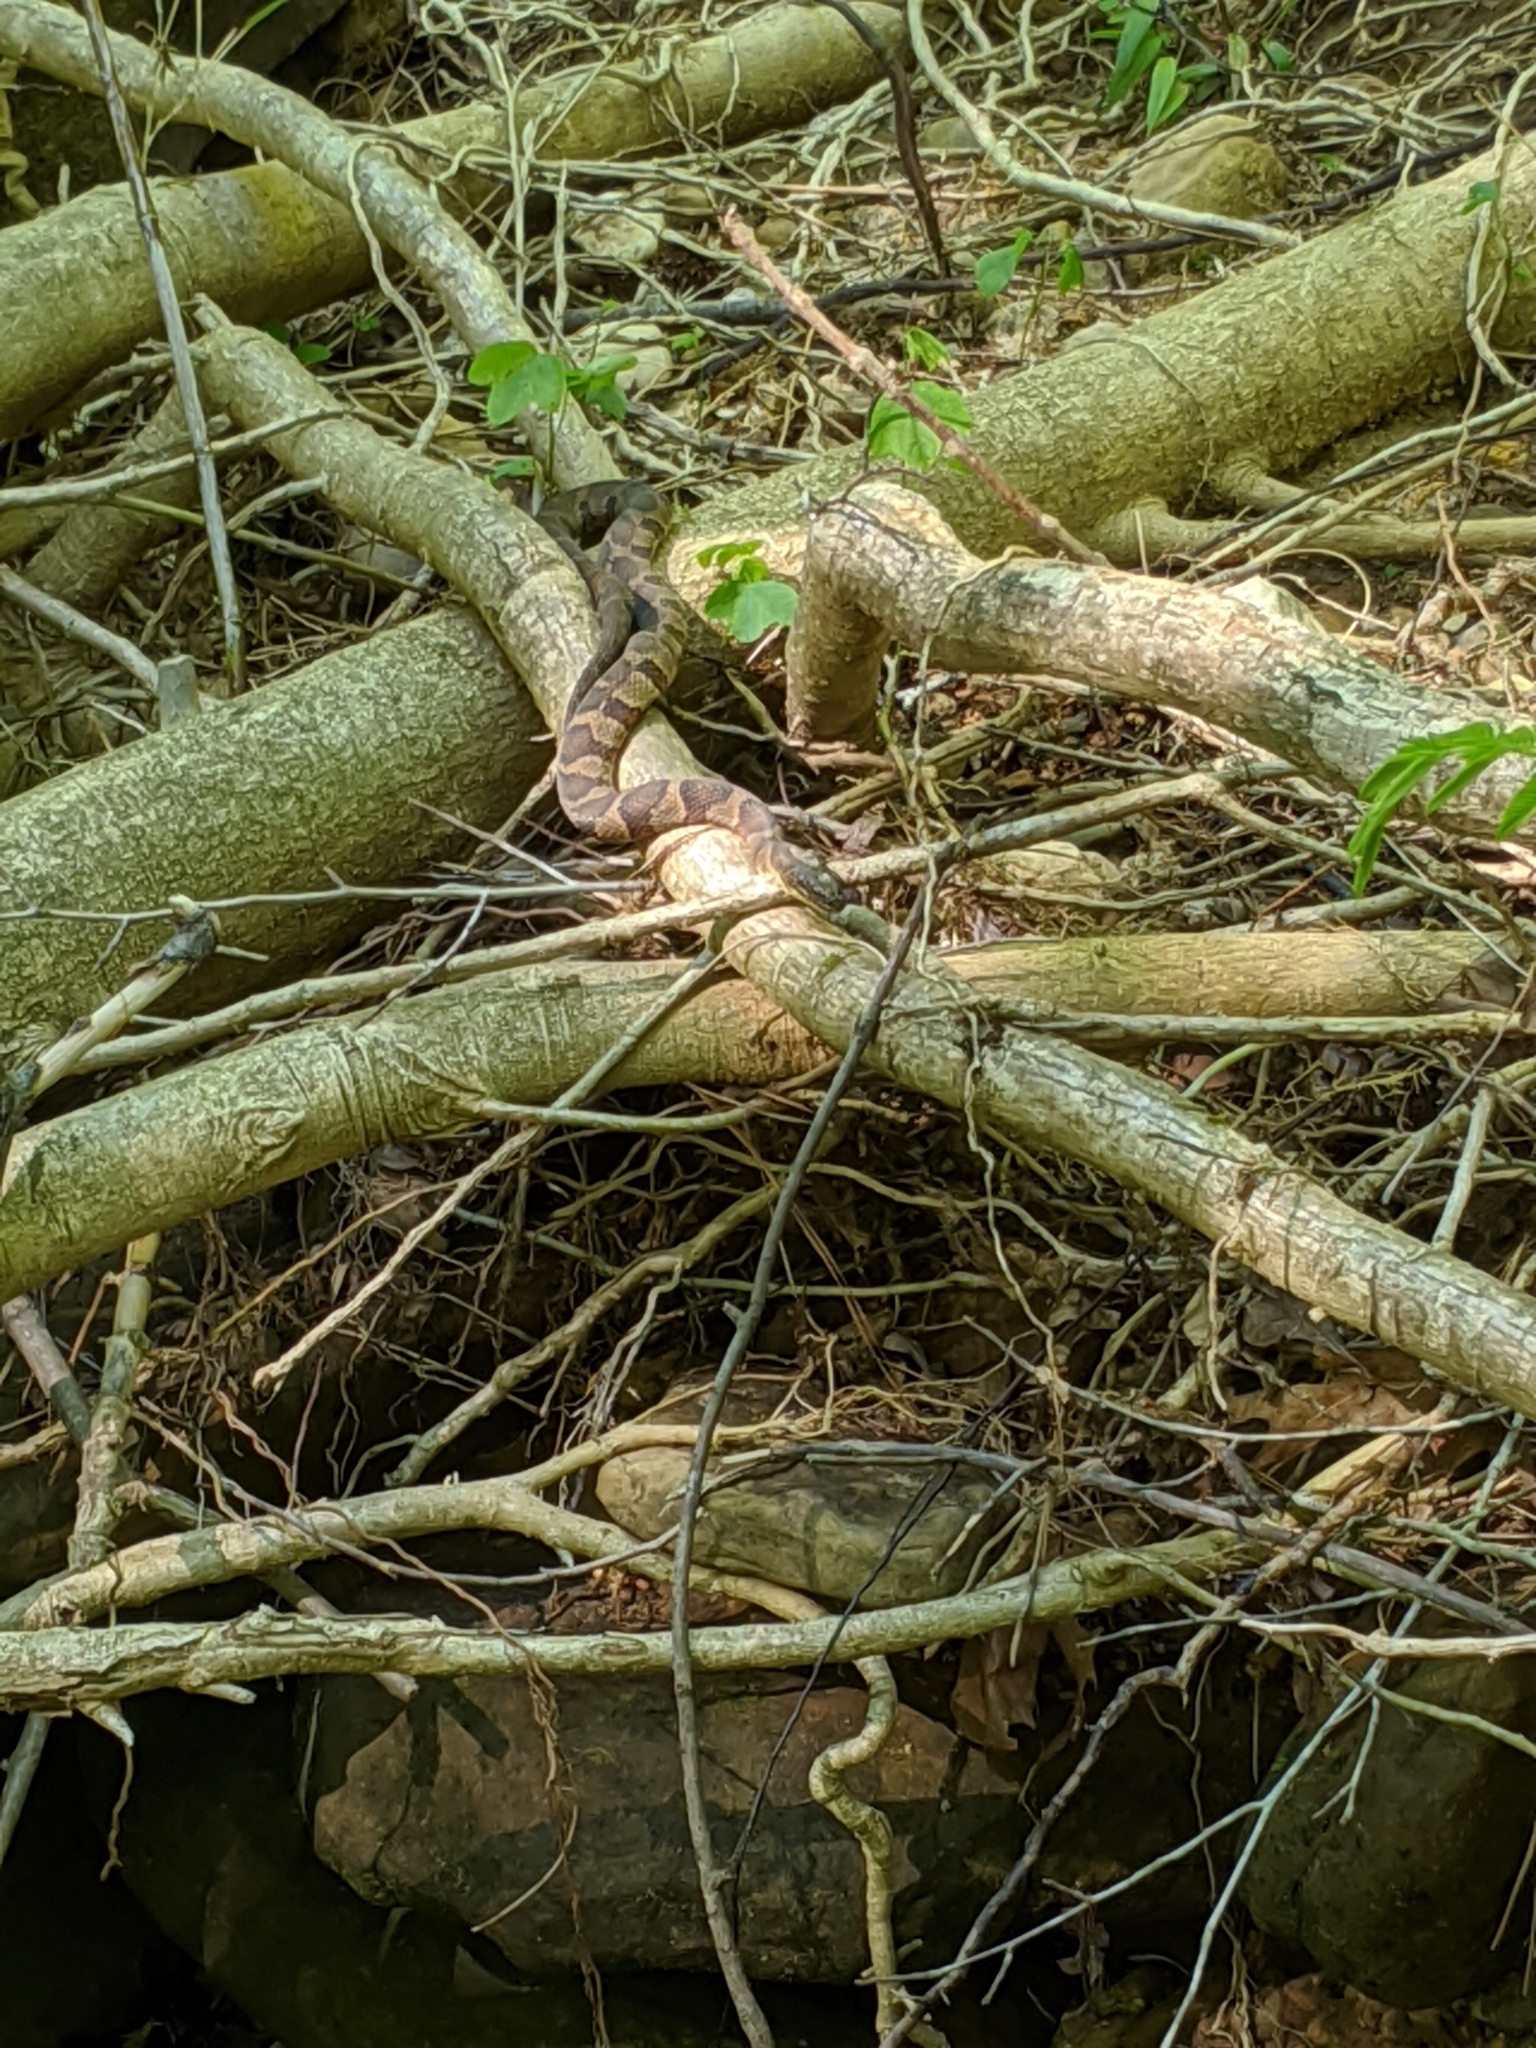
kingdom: Animalia
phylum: Chordata
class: Squamata
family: Colubridae
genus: Nerodia
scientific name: Nerodia sipedon
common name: Northern water snake
